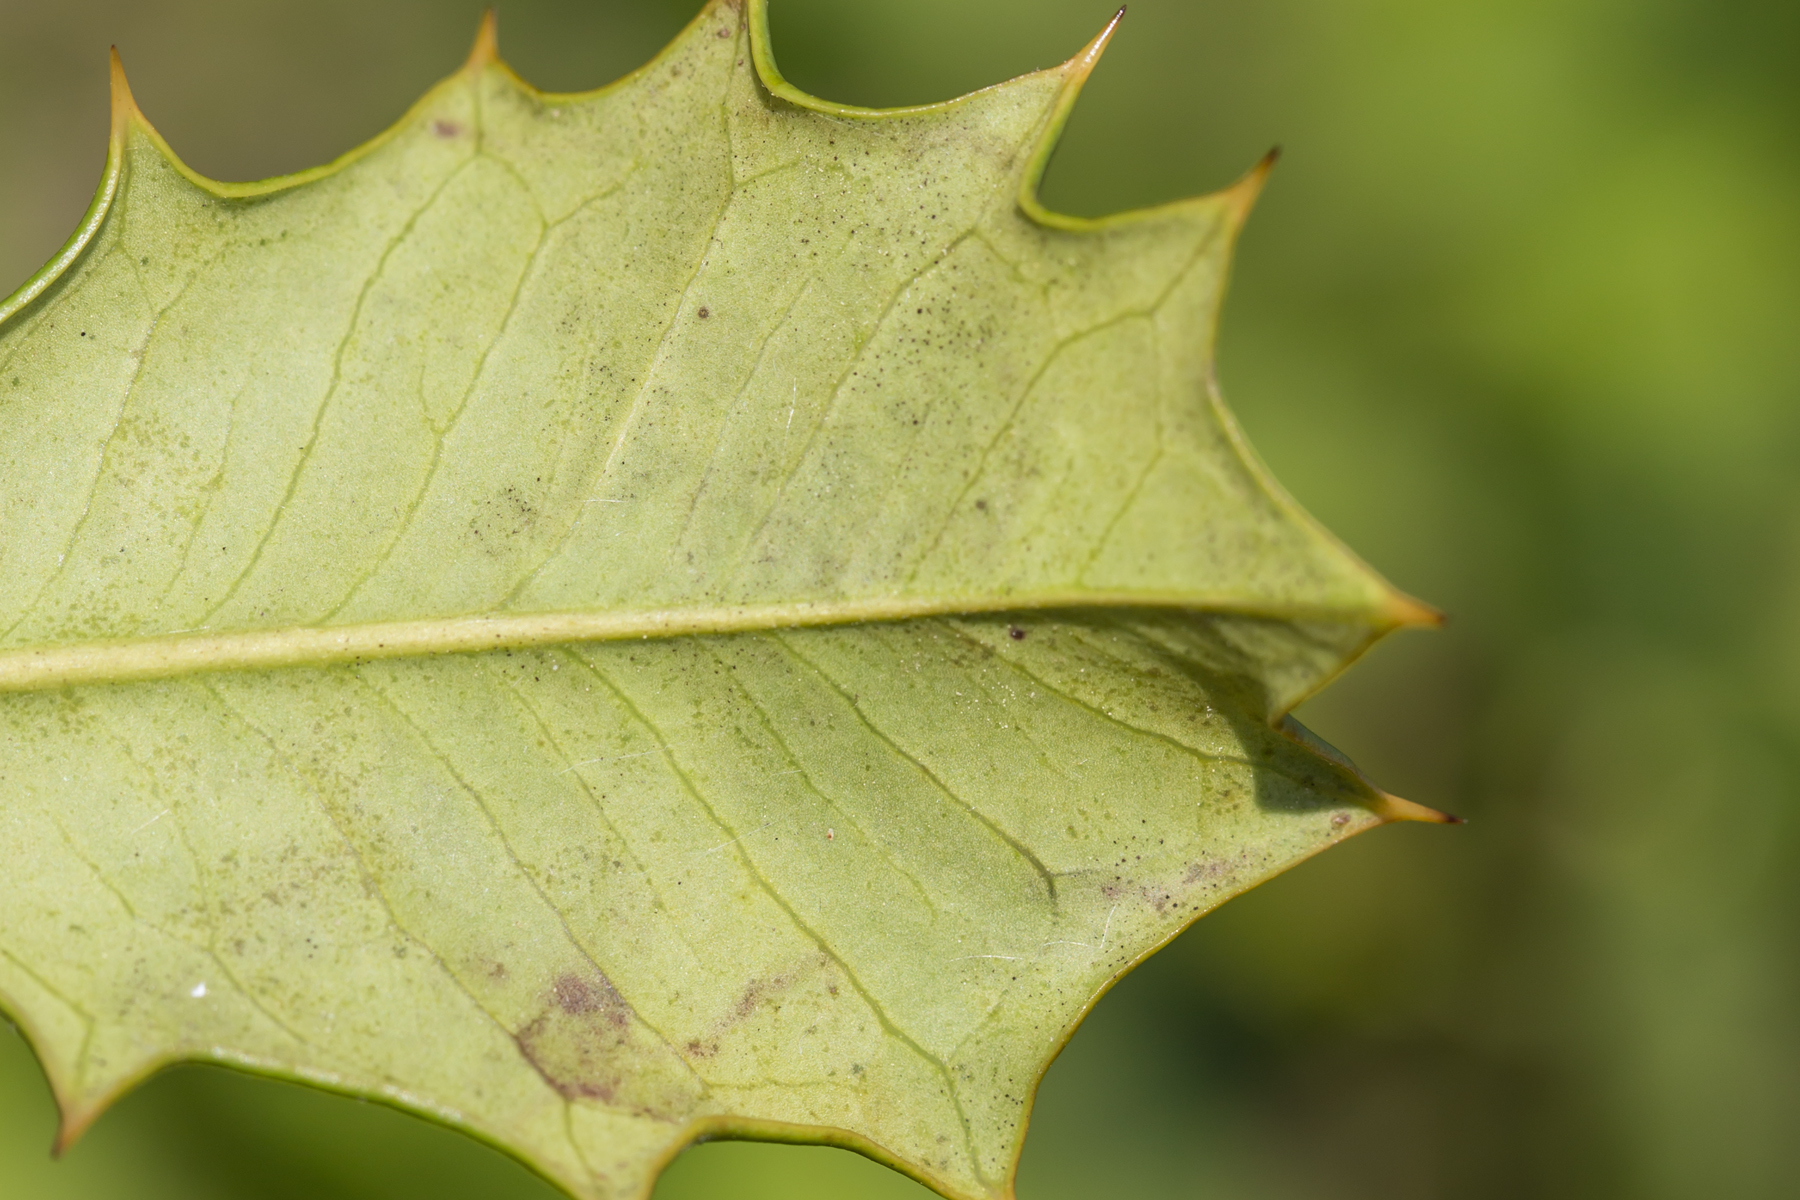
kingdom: Animalia
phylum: Arthropoda
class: Insecta
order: Diptera
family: Agromyzidae
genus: Phytomyza
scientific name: Phytomyza ilicicola
